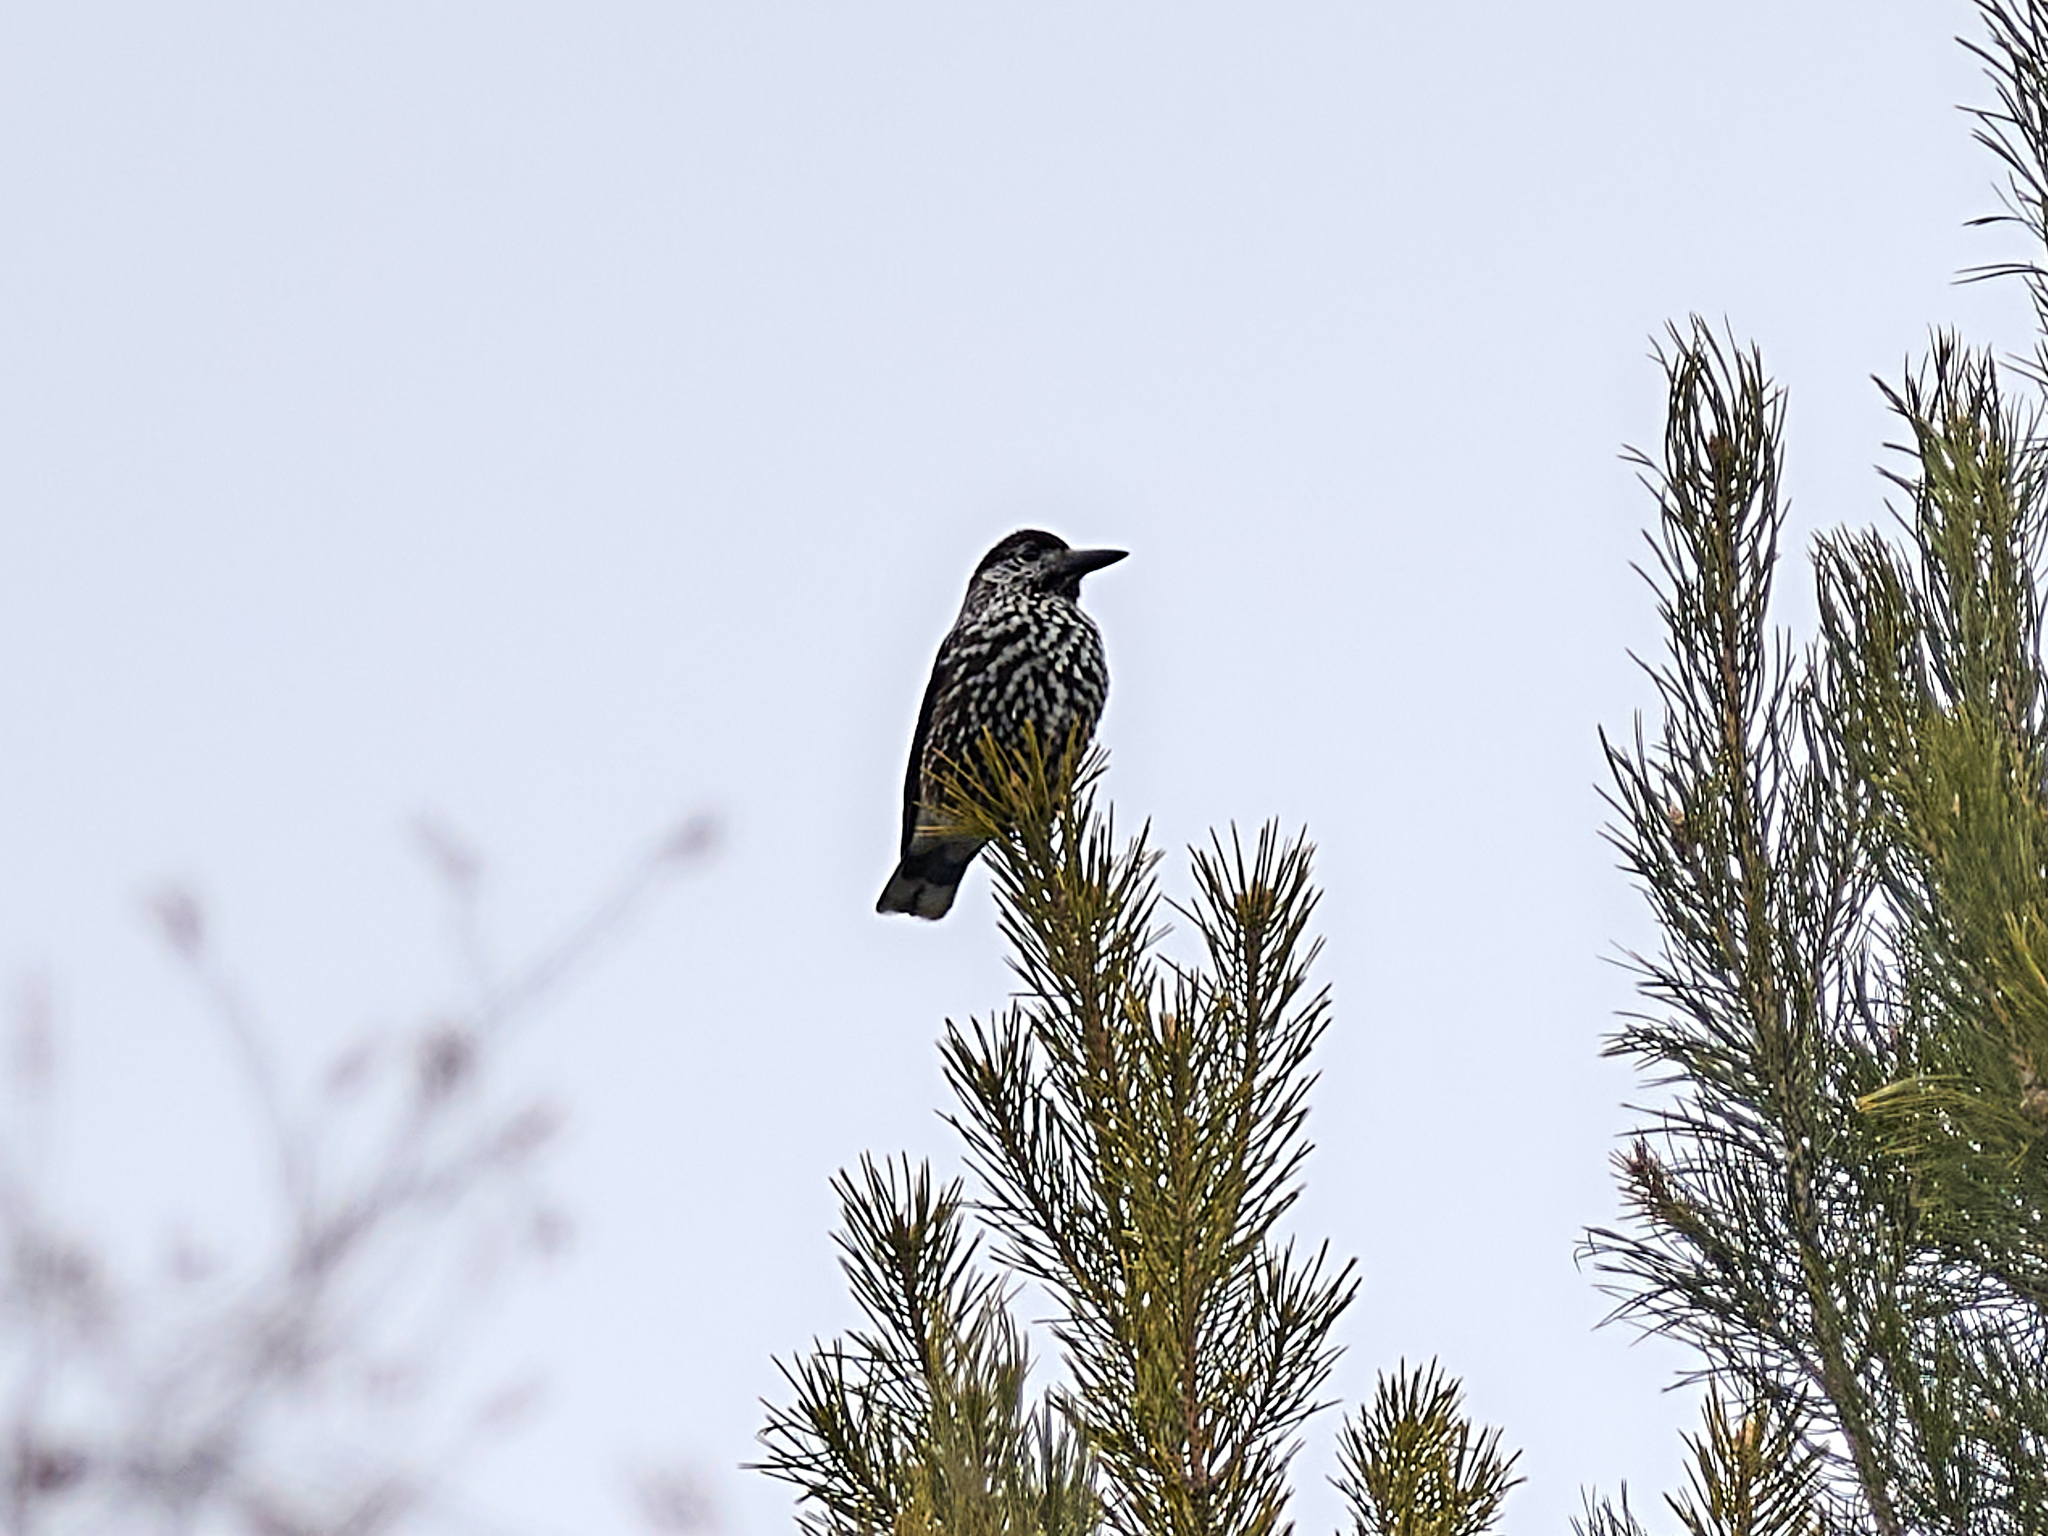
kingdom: Animalia
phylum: Chordata
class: Aves
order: Passeriformes
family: Corvidae
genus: Nucifraga
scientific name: Nucifraga caryocatactes
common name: Spotted nutcracker
